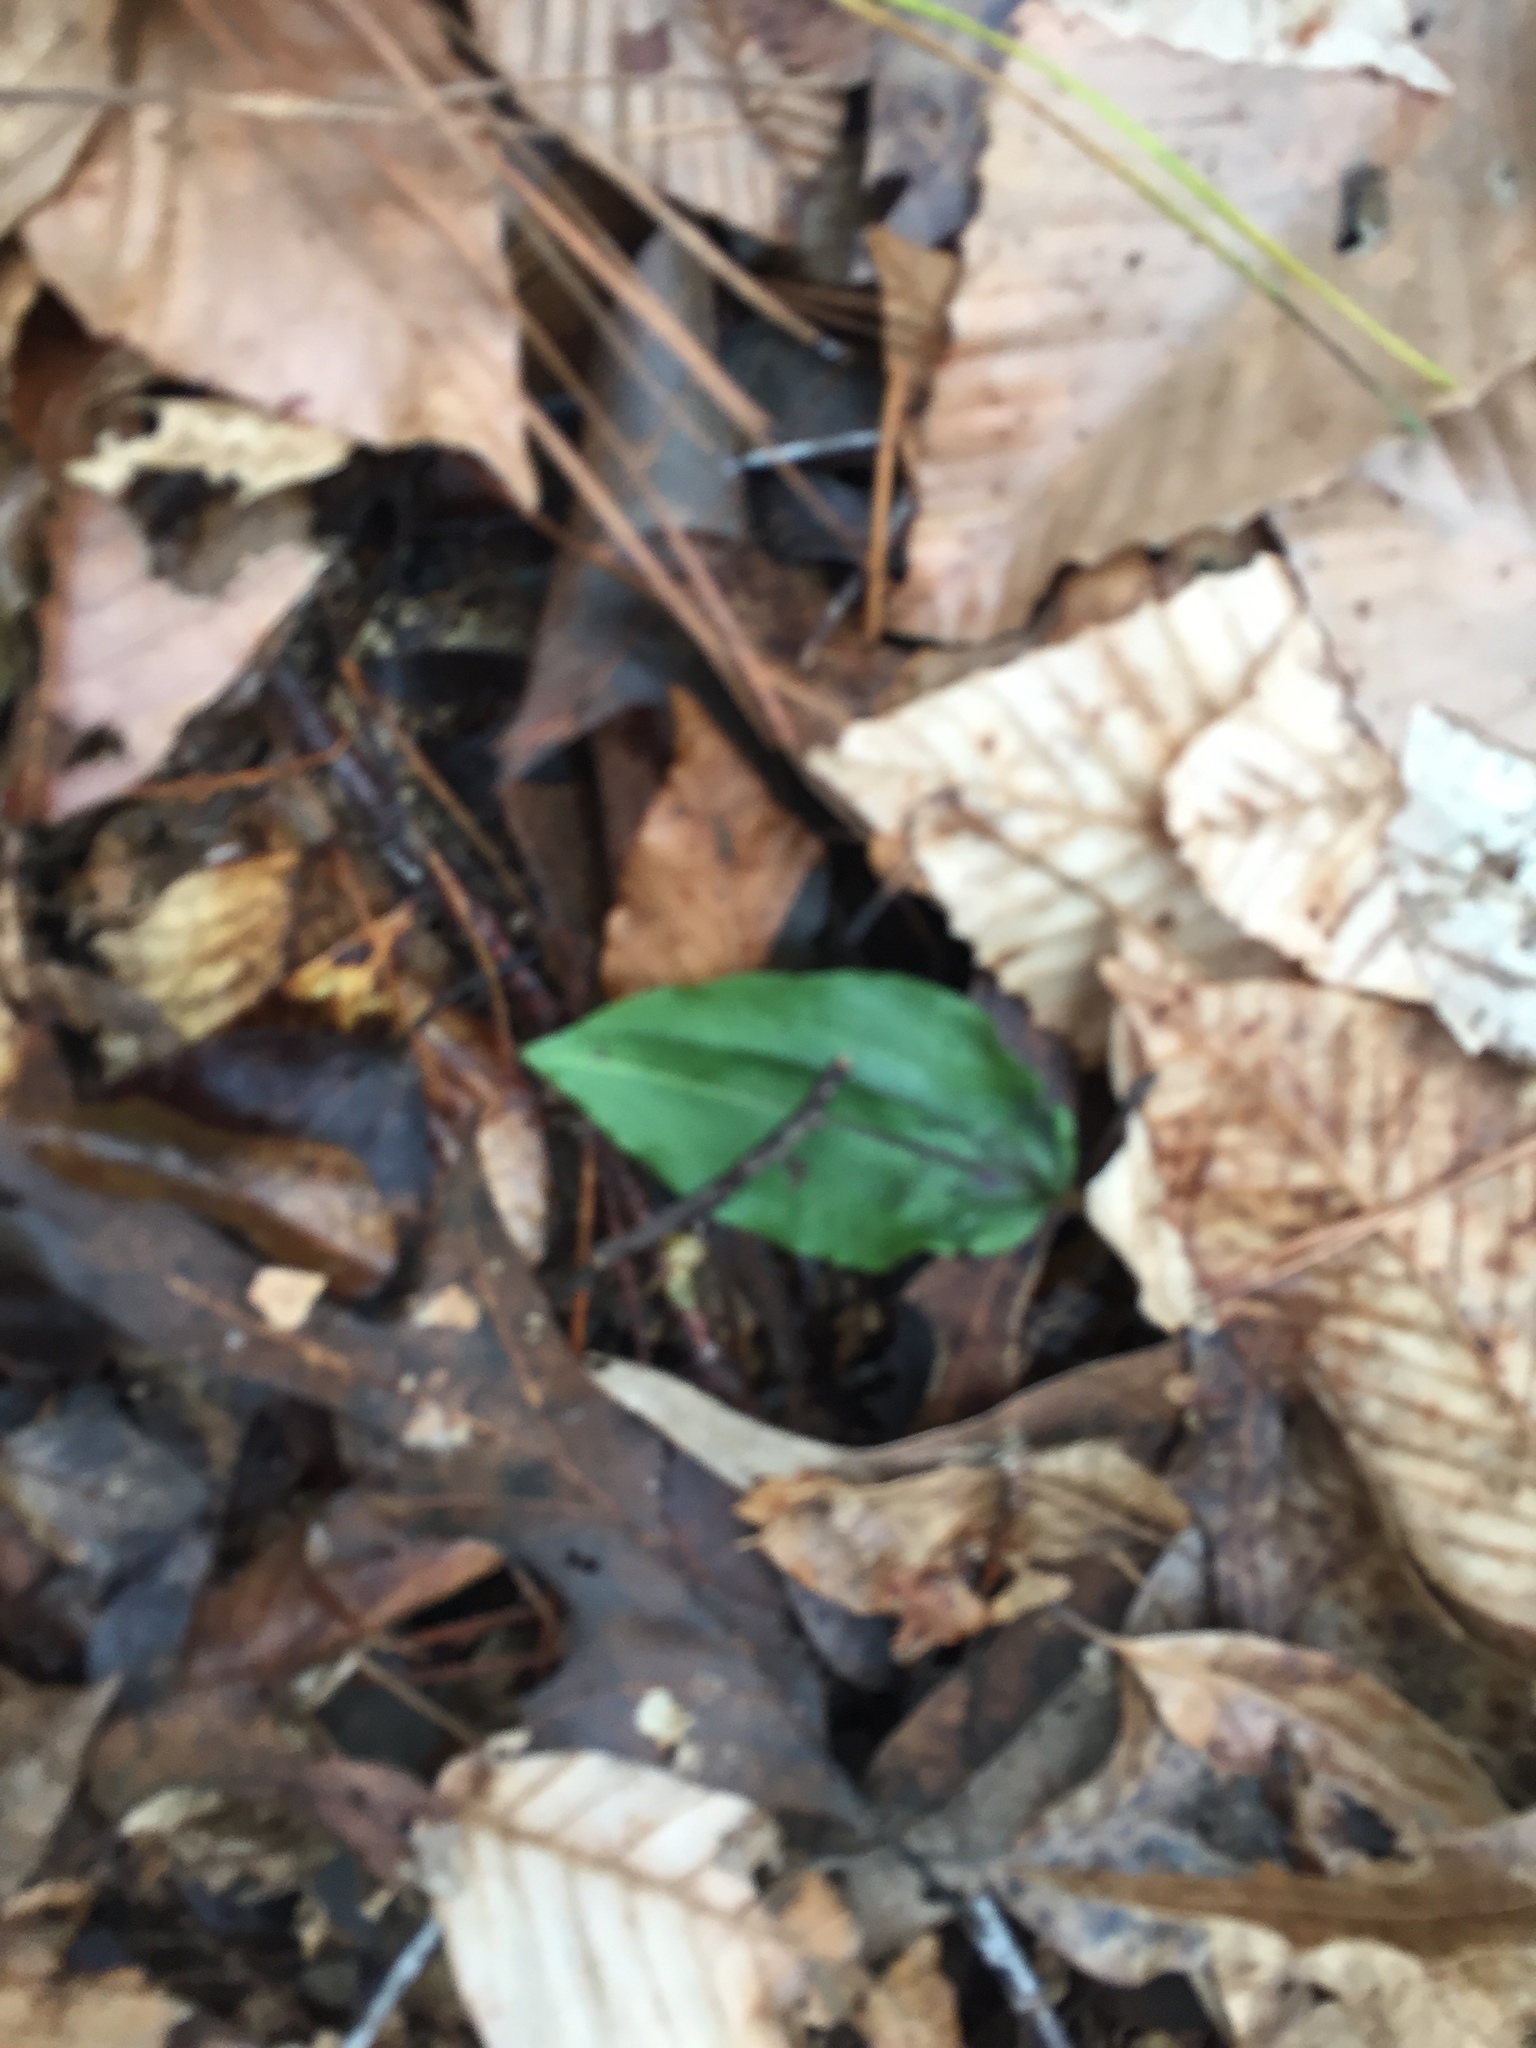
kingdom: Plantae
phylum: Tracheophyta
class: Liliopsida
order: Asparagales
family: Orchidaceae
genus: Tipularia
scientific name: Tipularia discolor
